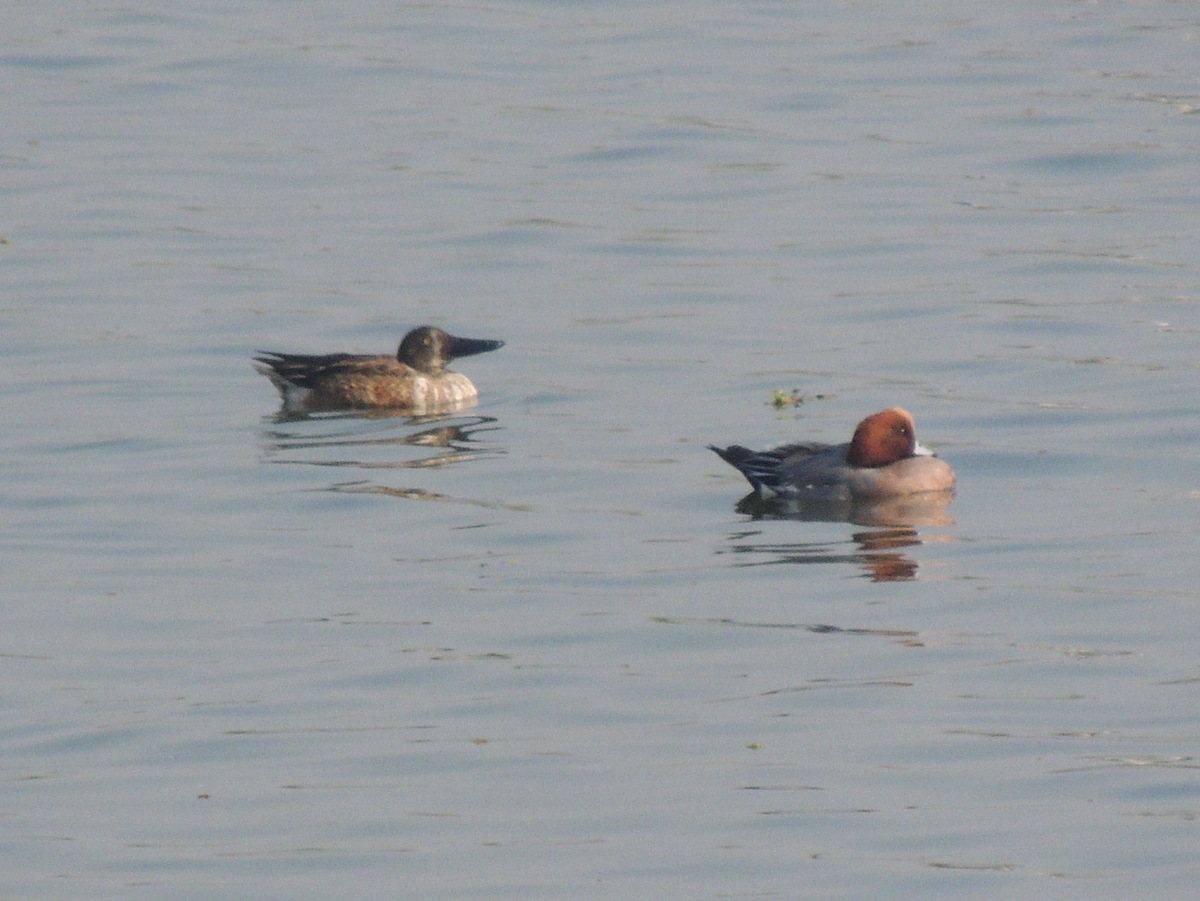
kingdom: Animalia
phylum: Chordata
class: Aves
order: Anseriformes
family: Anatidae
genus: Spatula
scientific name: Spatula clypeata
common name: Northern shoveler
